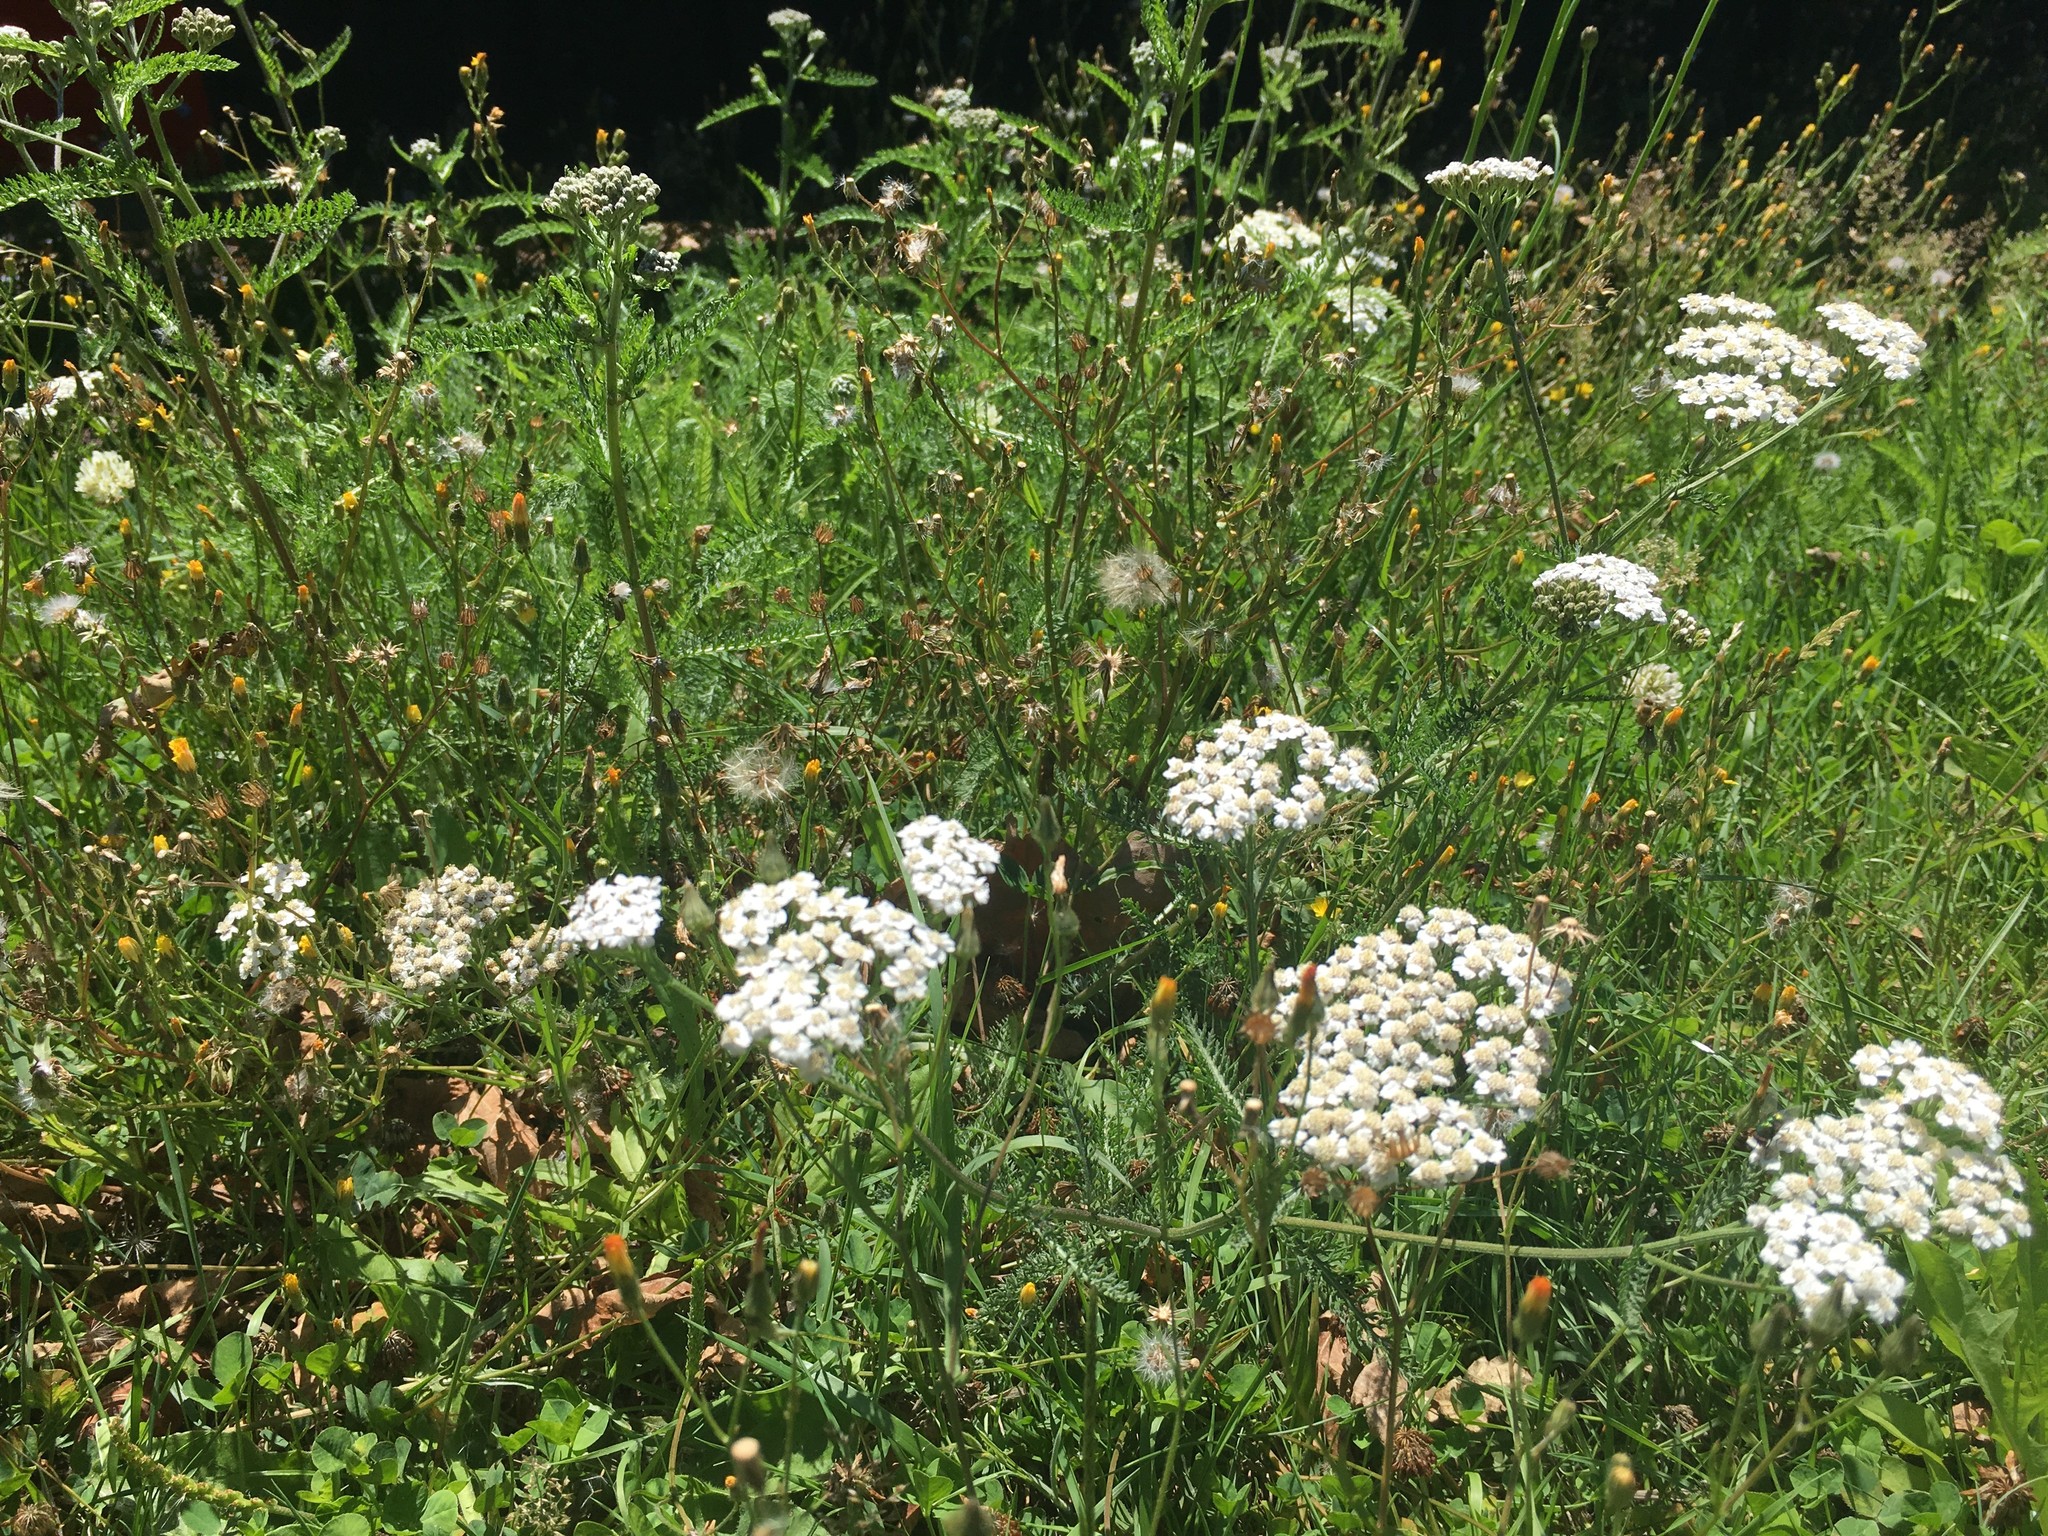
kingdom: Plantae
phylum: Tracheophyta
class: Magnoliopsida
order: Asterales
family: Asteraceae
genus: Achillea
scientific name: Achillea millefolium
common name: Yarrow
